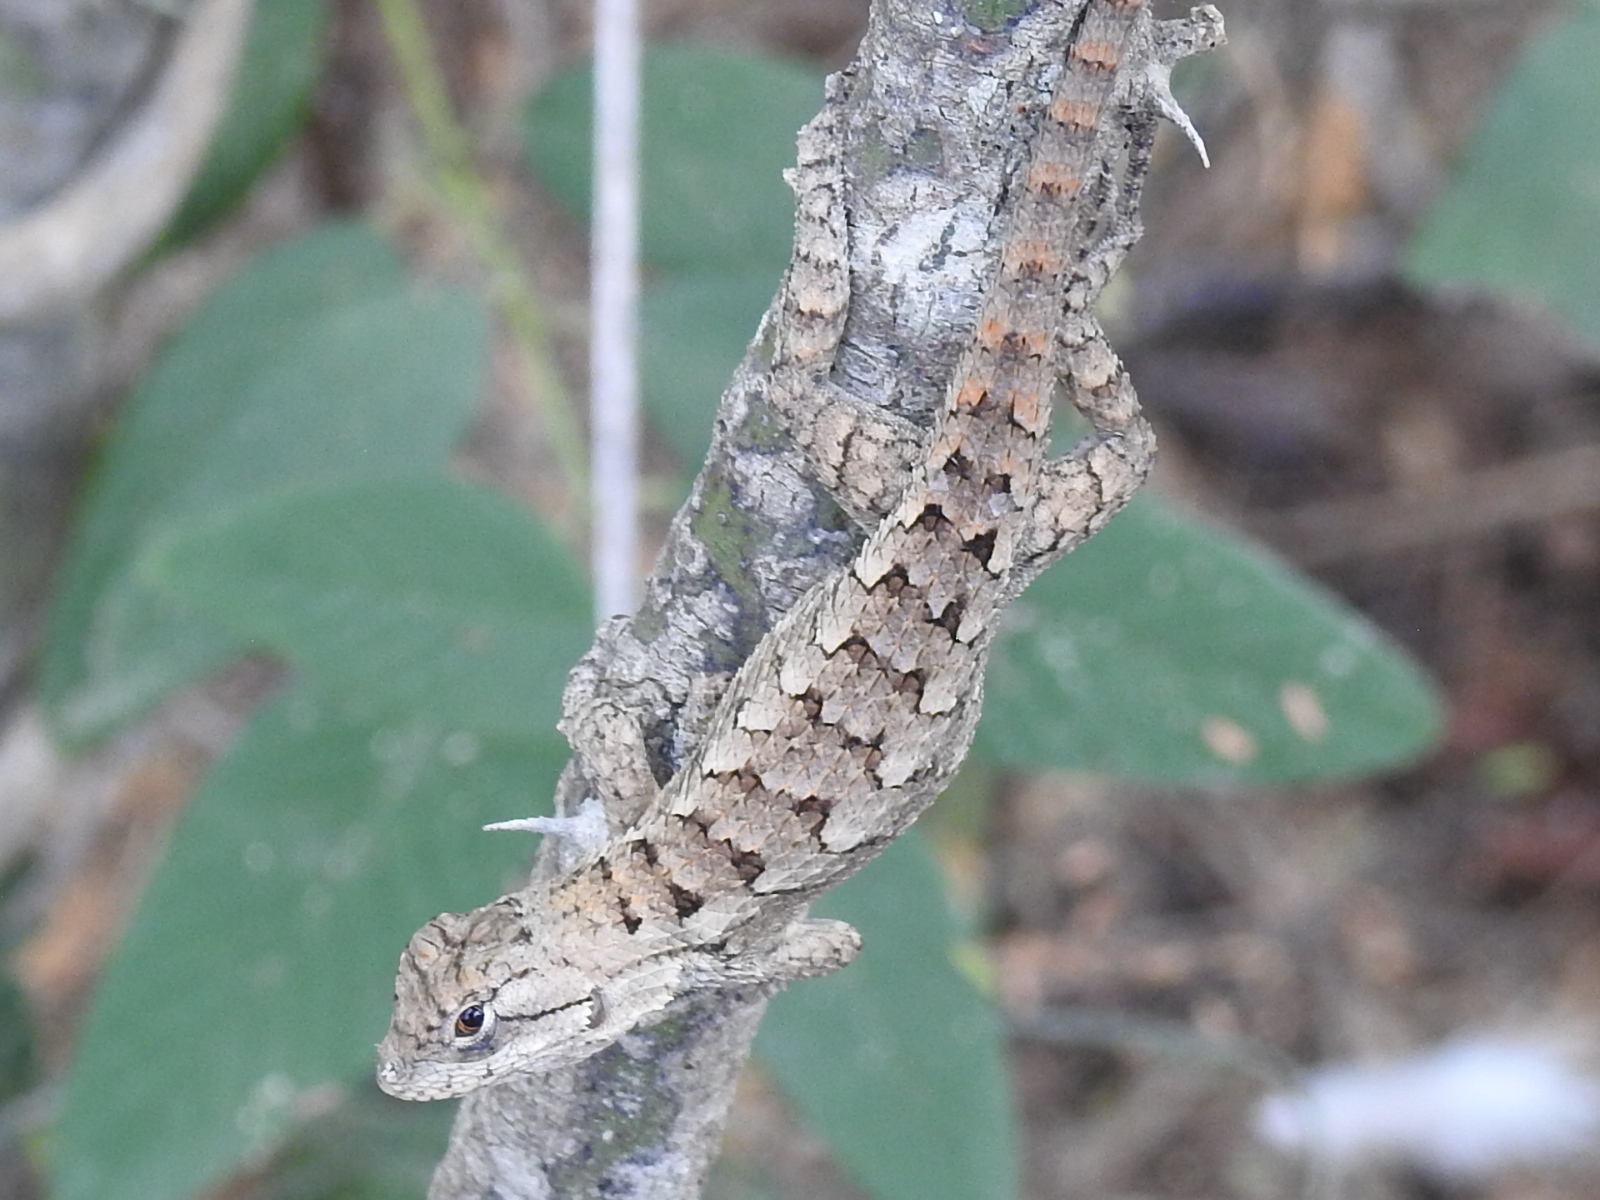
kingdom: Animalia
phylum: Chordata
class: Squamata
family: Phrynosomatidae
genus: Sceloporus
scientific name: Sceloporus variabilis
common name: Rosebelly lizard
